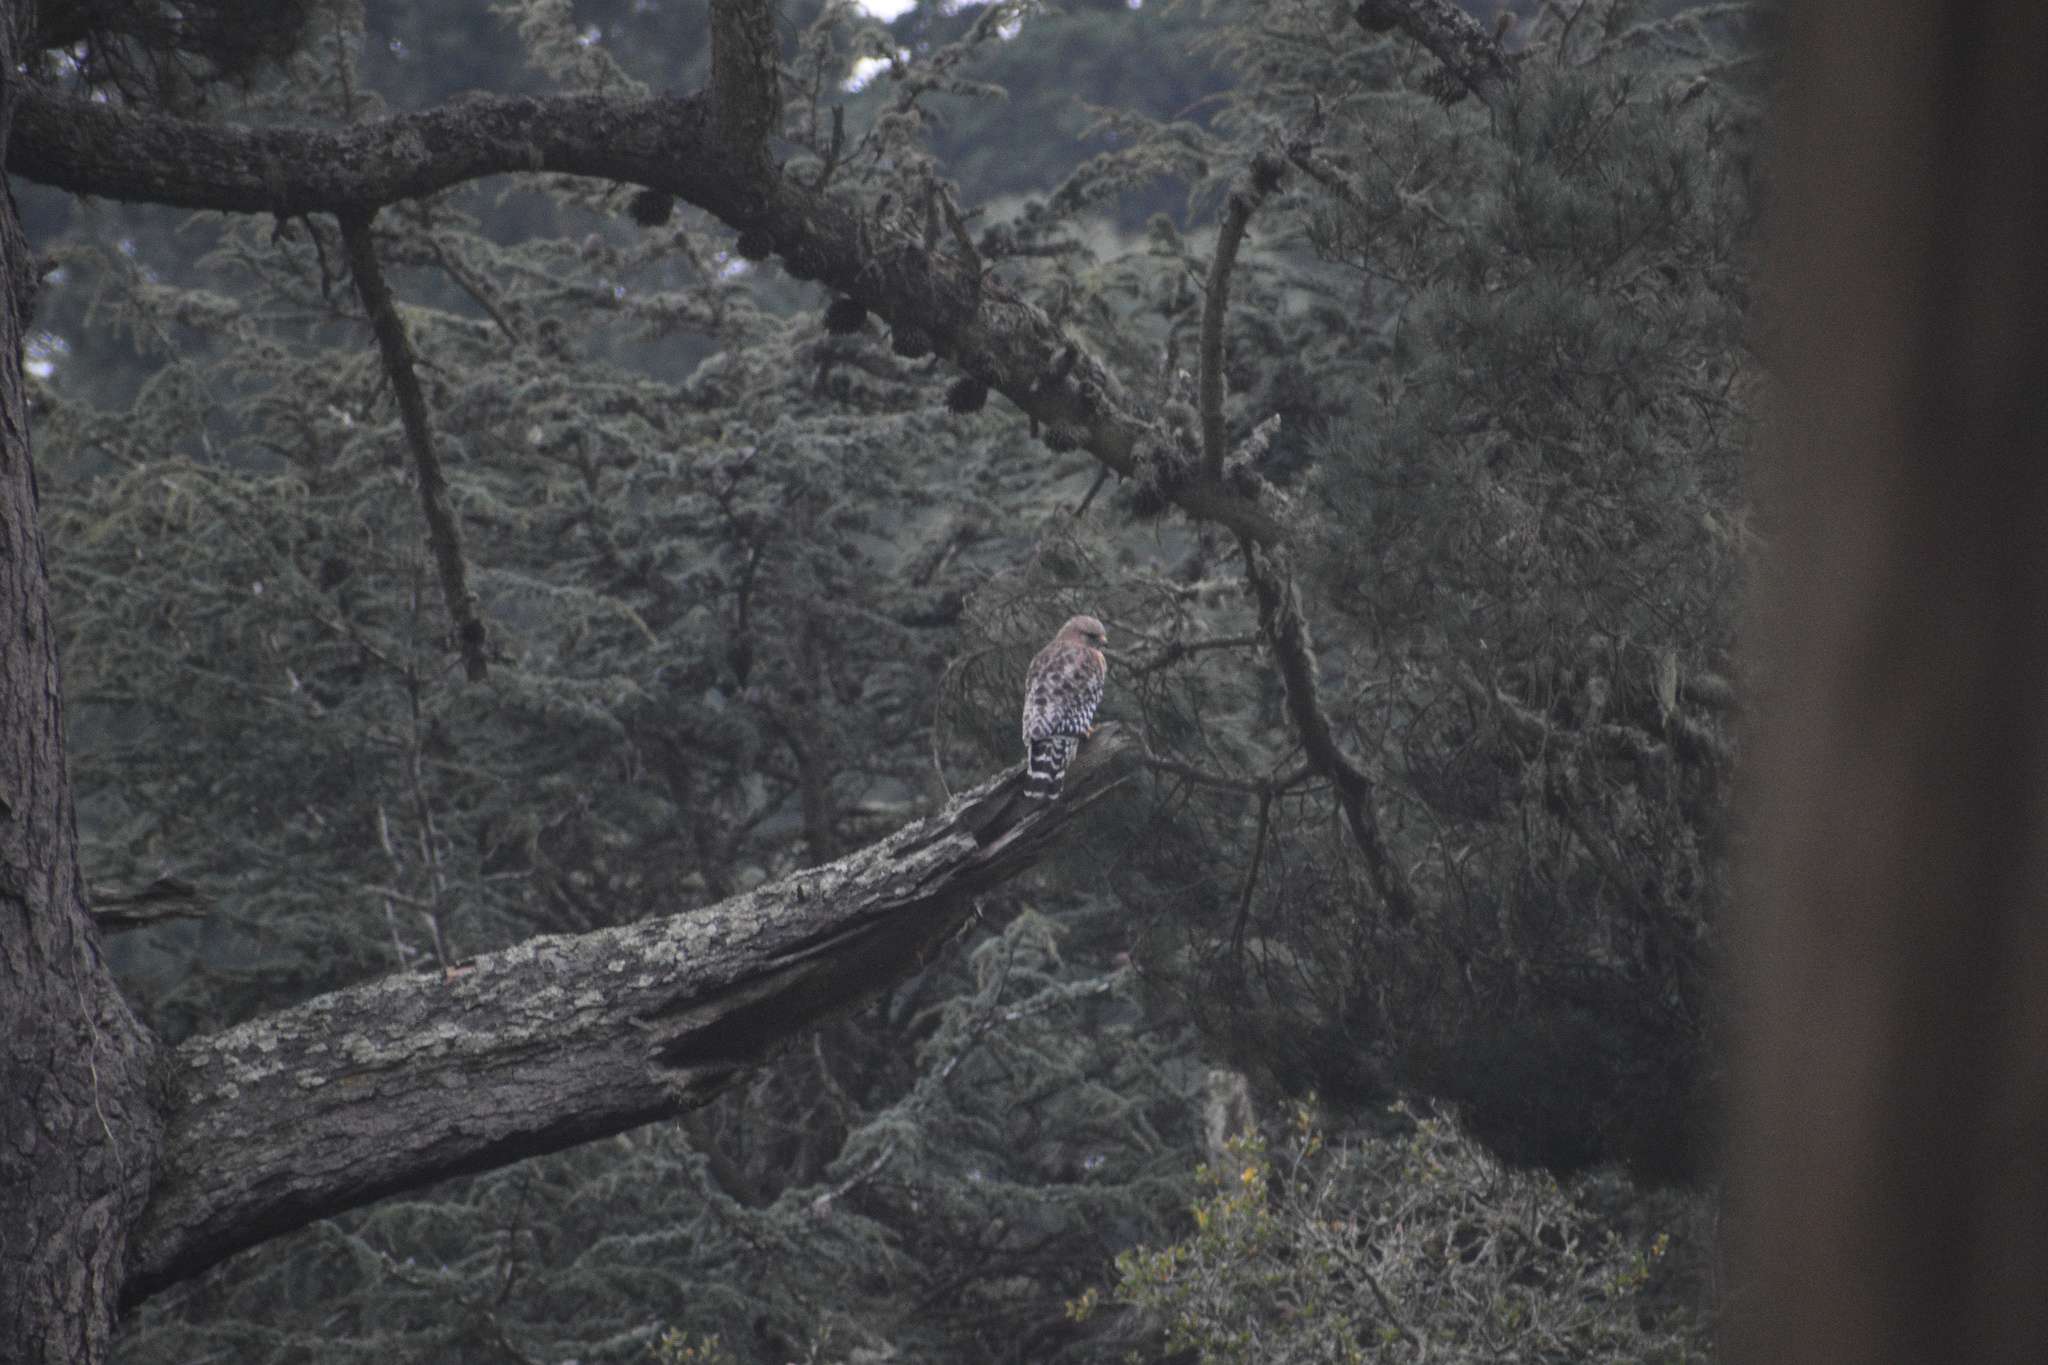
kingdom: Animalia
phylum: Chordata
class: Aves
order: Accipitriformes
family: Accipitridae
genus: Buteo
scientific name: Buteo lineatus
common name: Red-shouldered hawk
